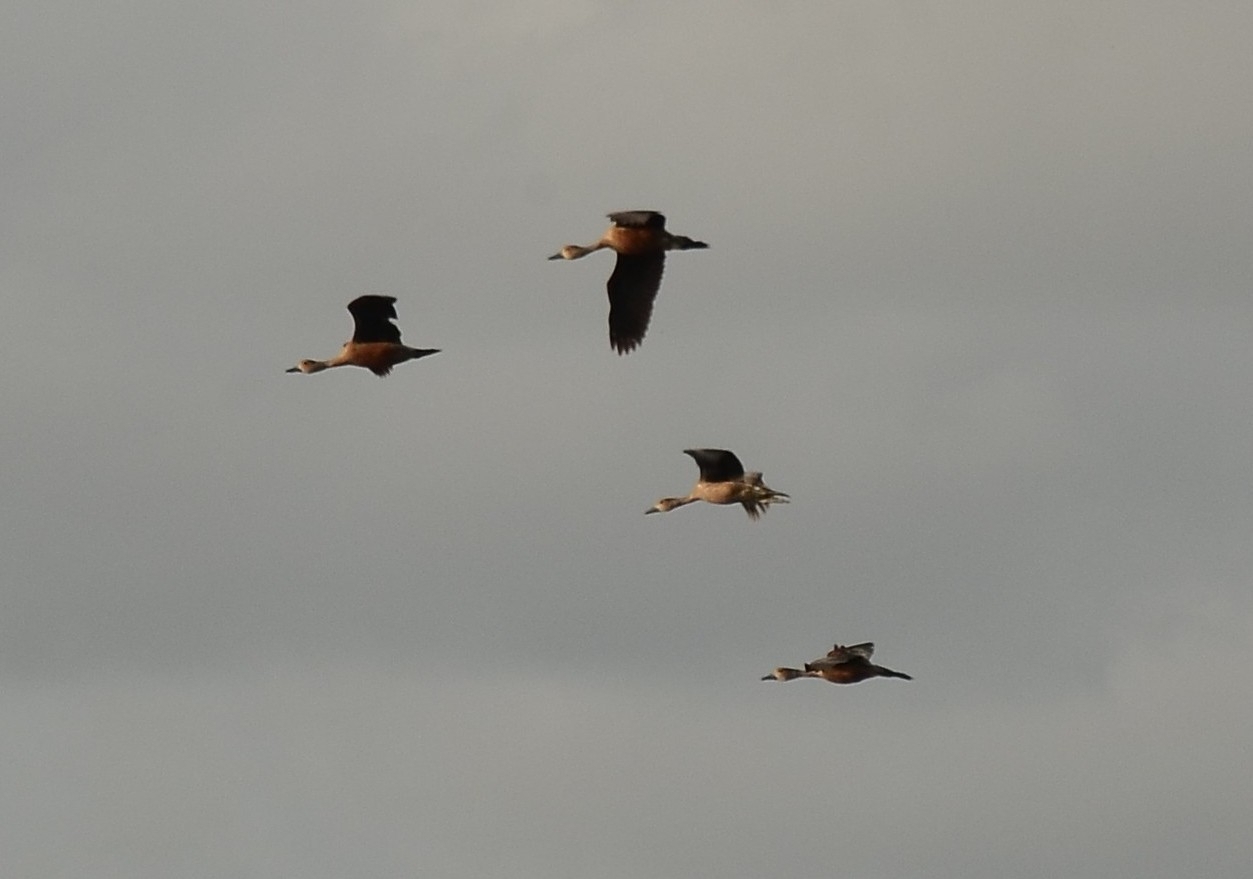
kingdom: Animalia
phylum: Chordata
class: Aves
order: Anseriformes
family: Anatidae
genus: Dendrocygna
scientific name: Dendrocygna javanica
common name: Lesser whistling-duck
